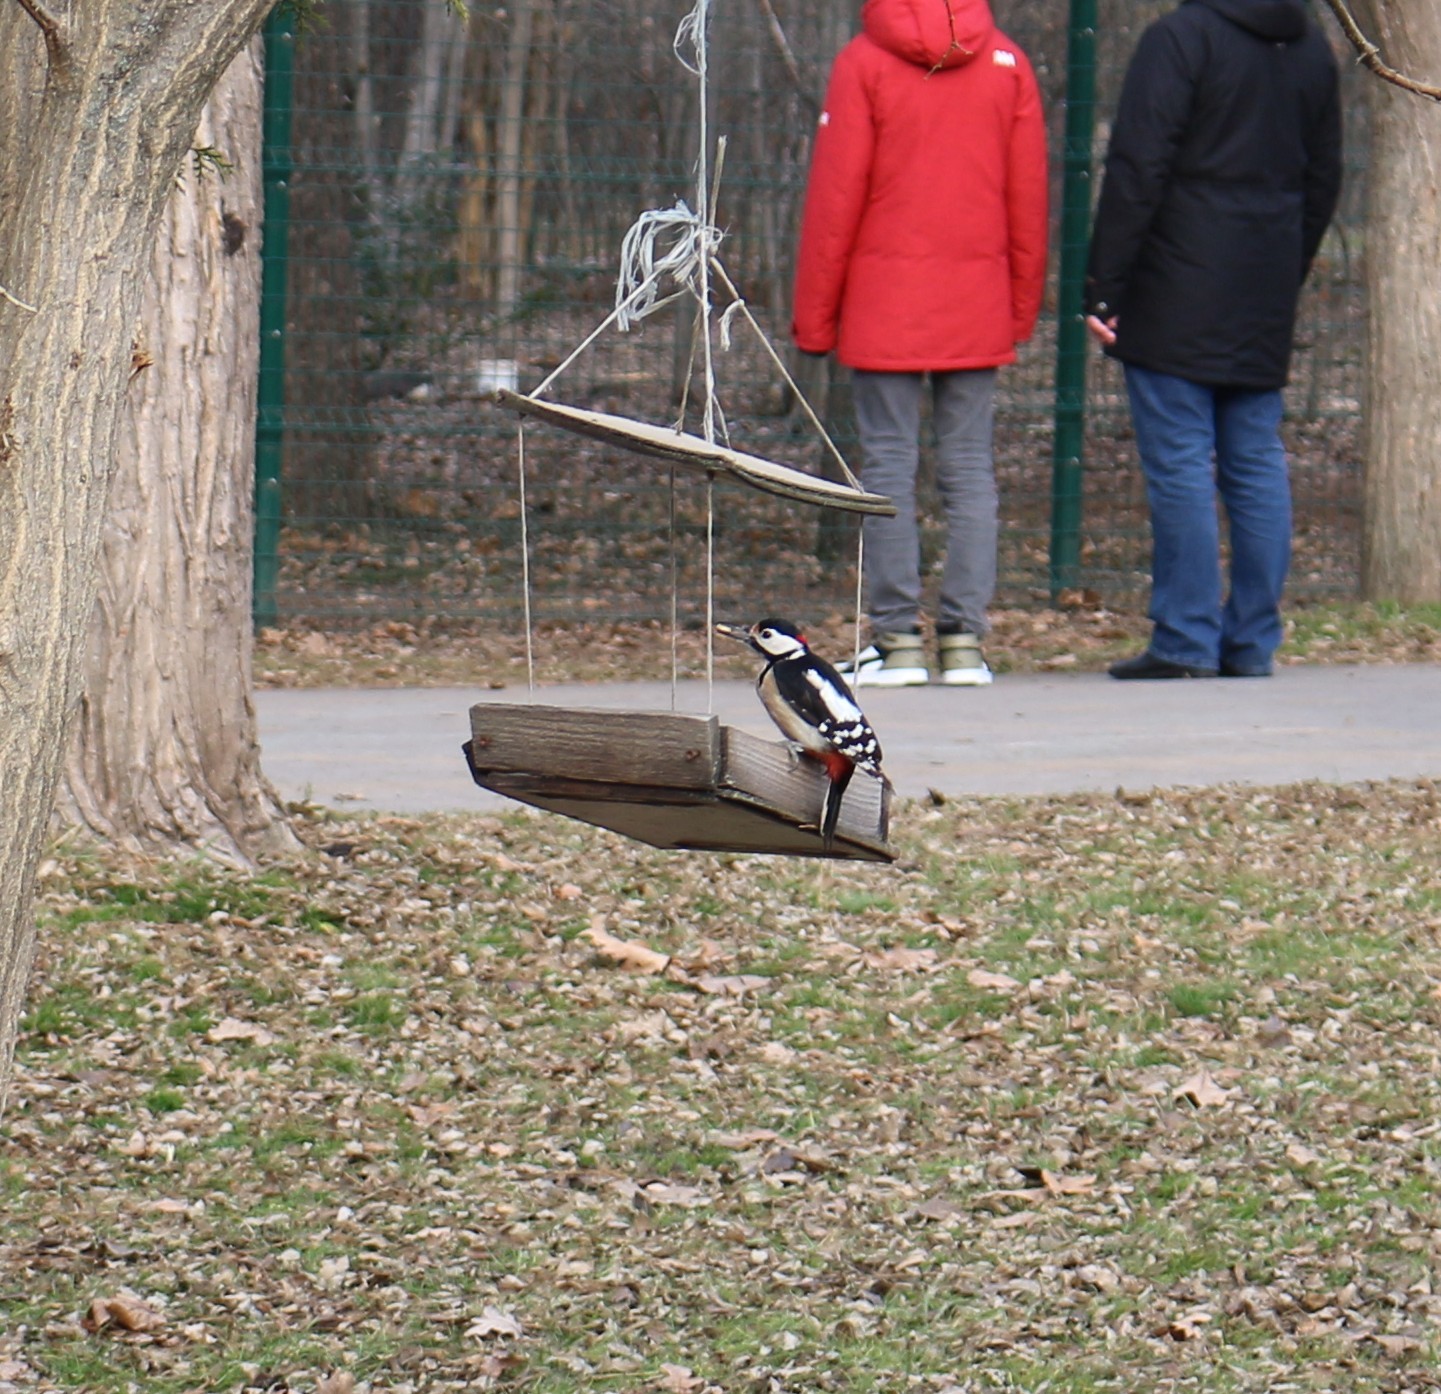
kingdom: Animalia
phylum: Chordata
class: Aves
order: Piciformes
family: Picidae
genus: Dendrocopos
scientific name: Dendrocopos major
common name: Great spotted woodpecker
